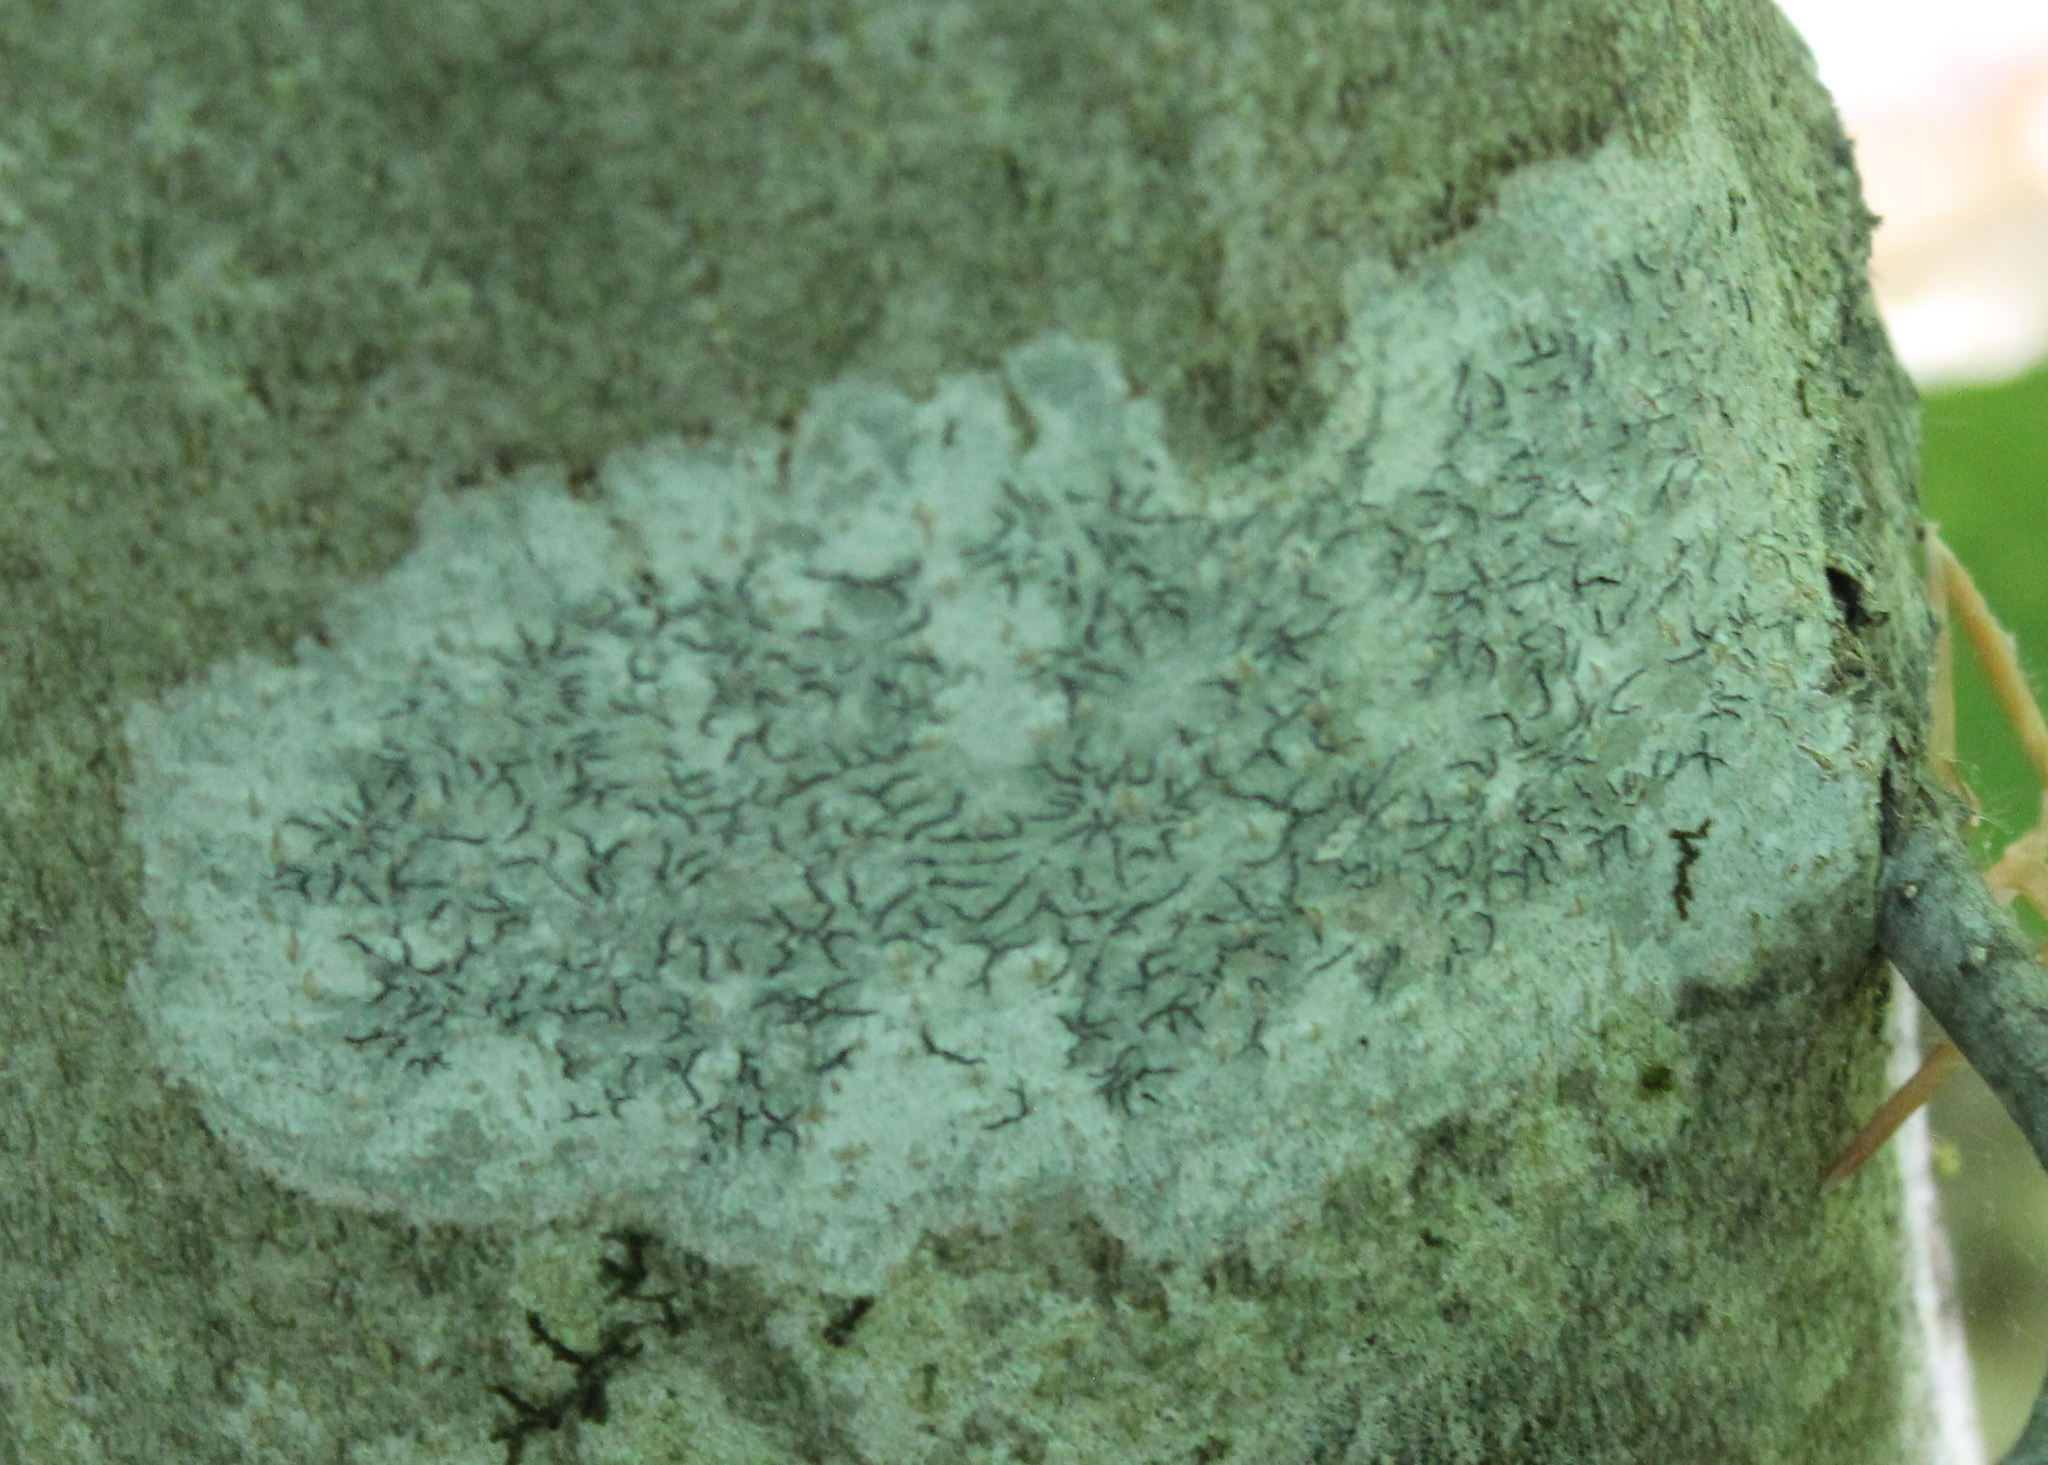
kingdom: Fungi
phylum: Ascomycota
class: Lecanoromycetes
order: Ostropales
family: Graphidaceae
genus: Graphis
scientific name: Graphis scripta
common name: Script lichen
